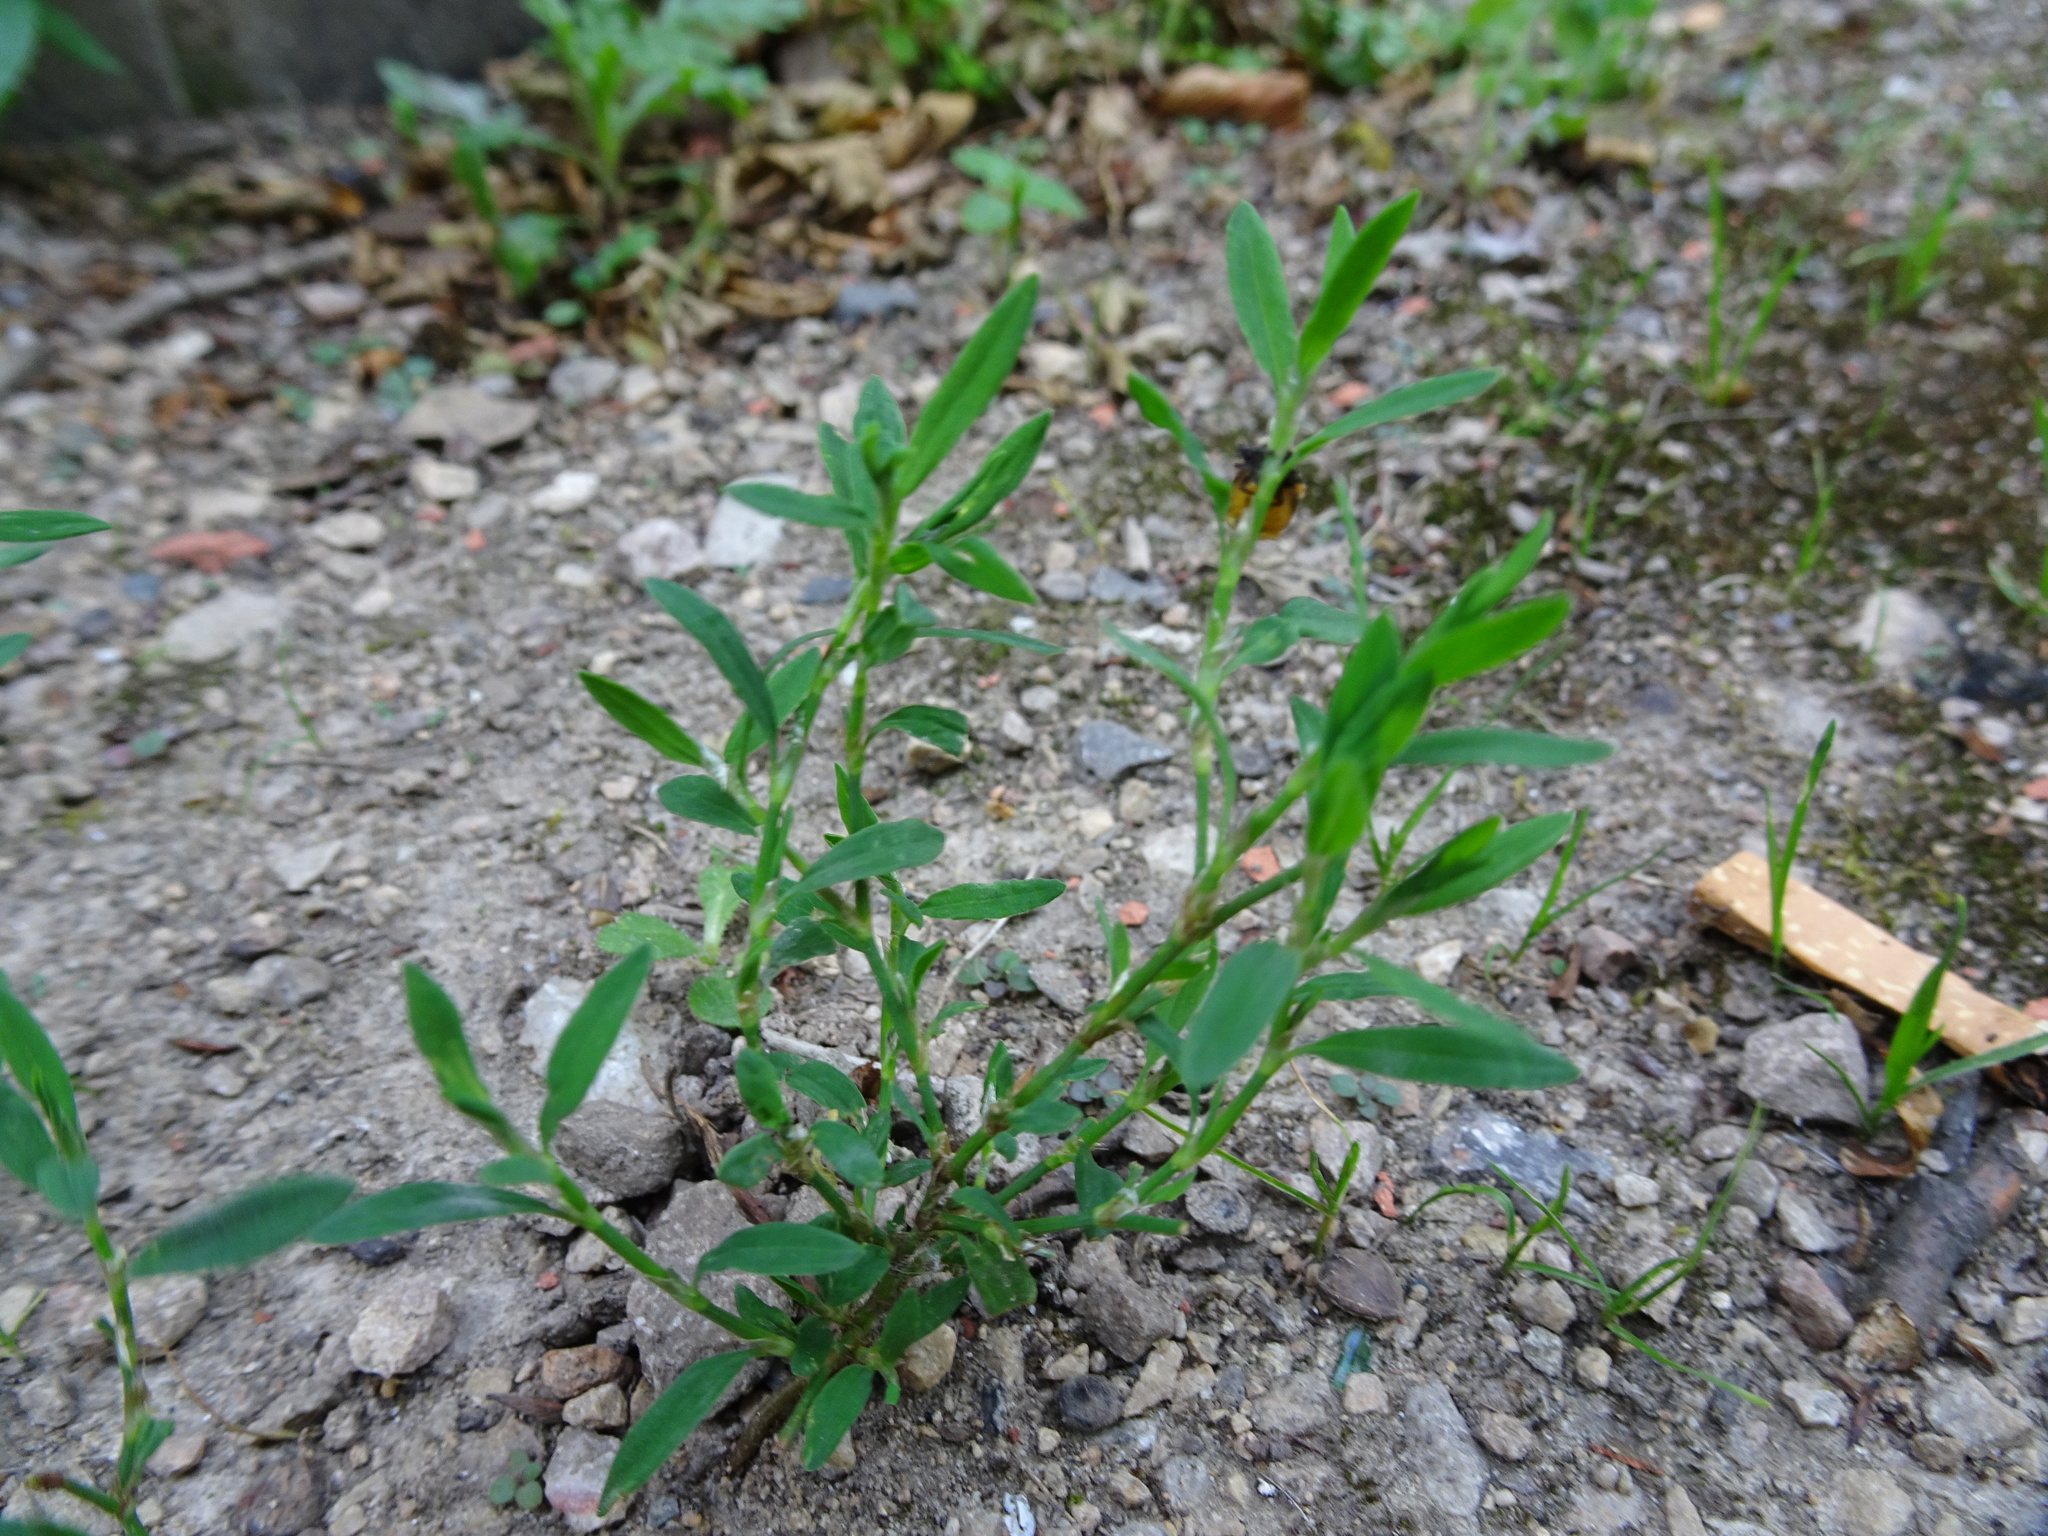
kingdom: Plantae
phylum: Tracheophyta
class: Magnoliopsida
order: Caryophyllales
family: Polygonaceae
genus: Polygonum
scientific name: Polygonum aviculare
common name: Prostrate knotweed
